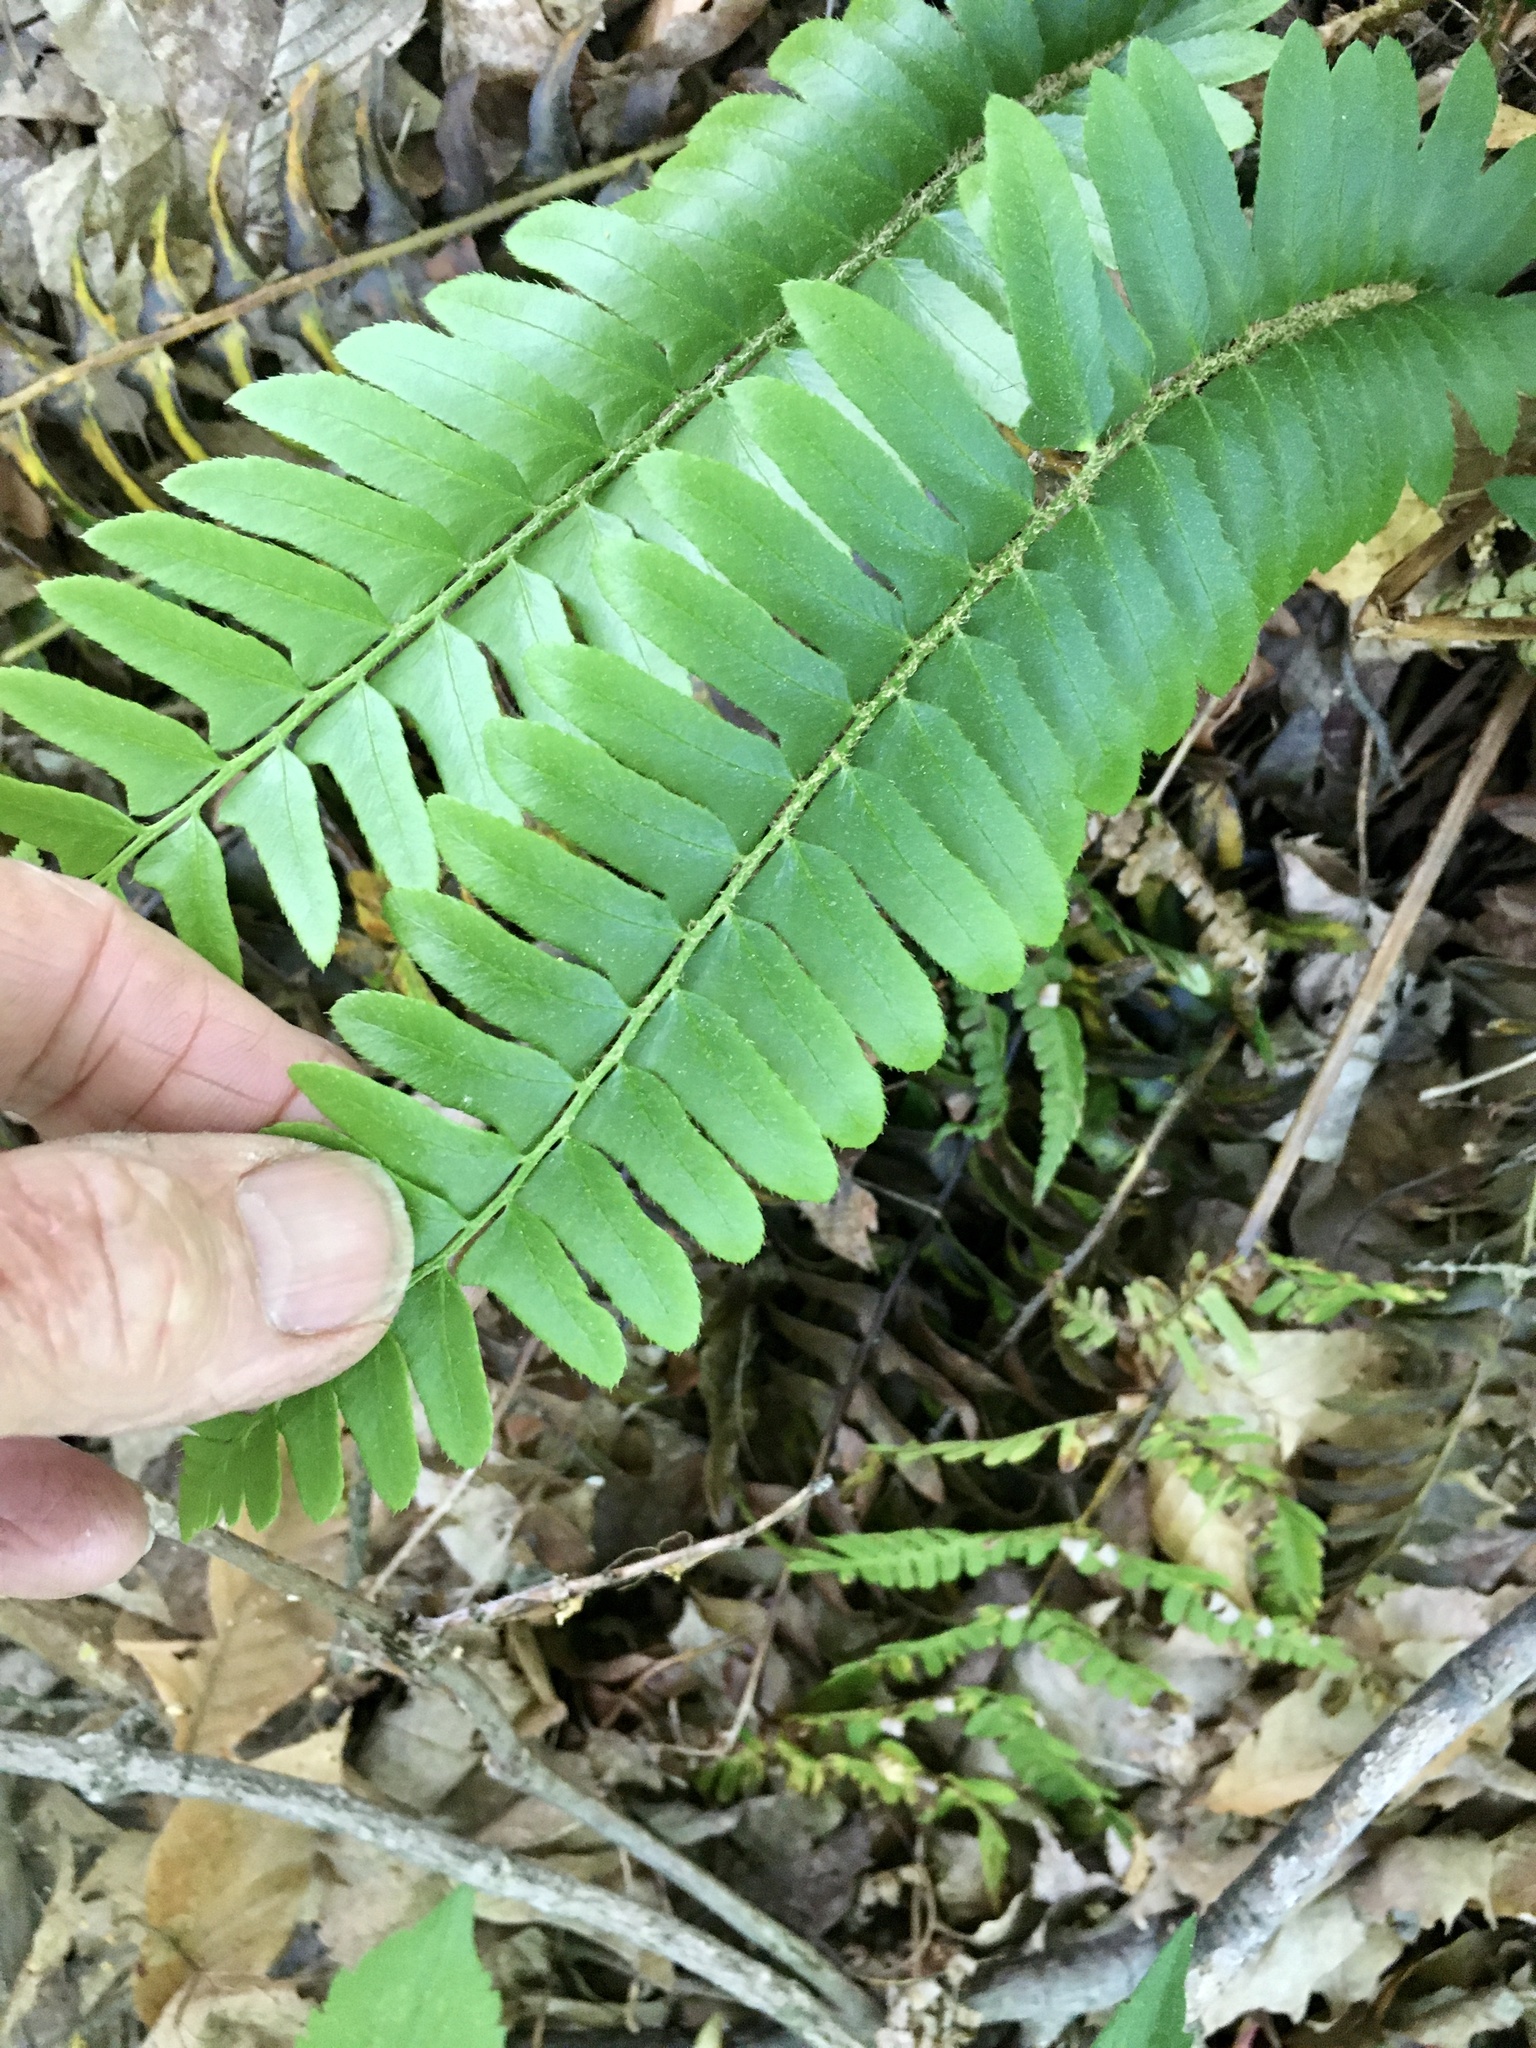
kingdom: Plantae
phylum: Tracheophyta
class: Polypodiopsida
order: Polypodiales
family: Dryopteridaceae
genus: Polystichum
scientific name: Polystichum acrostichoides
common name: Christmas fern
